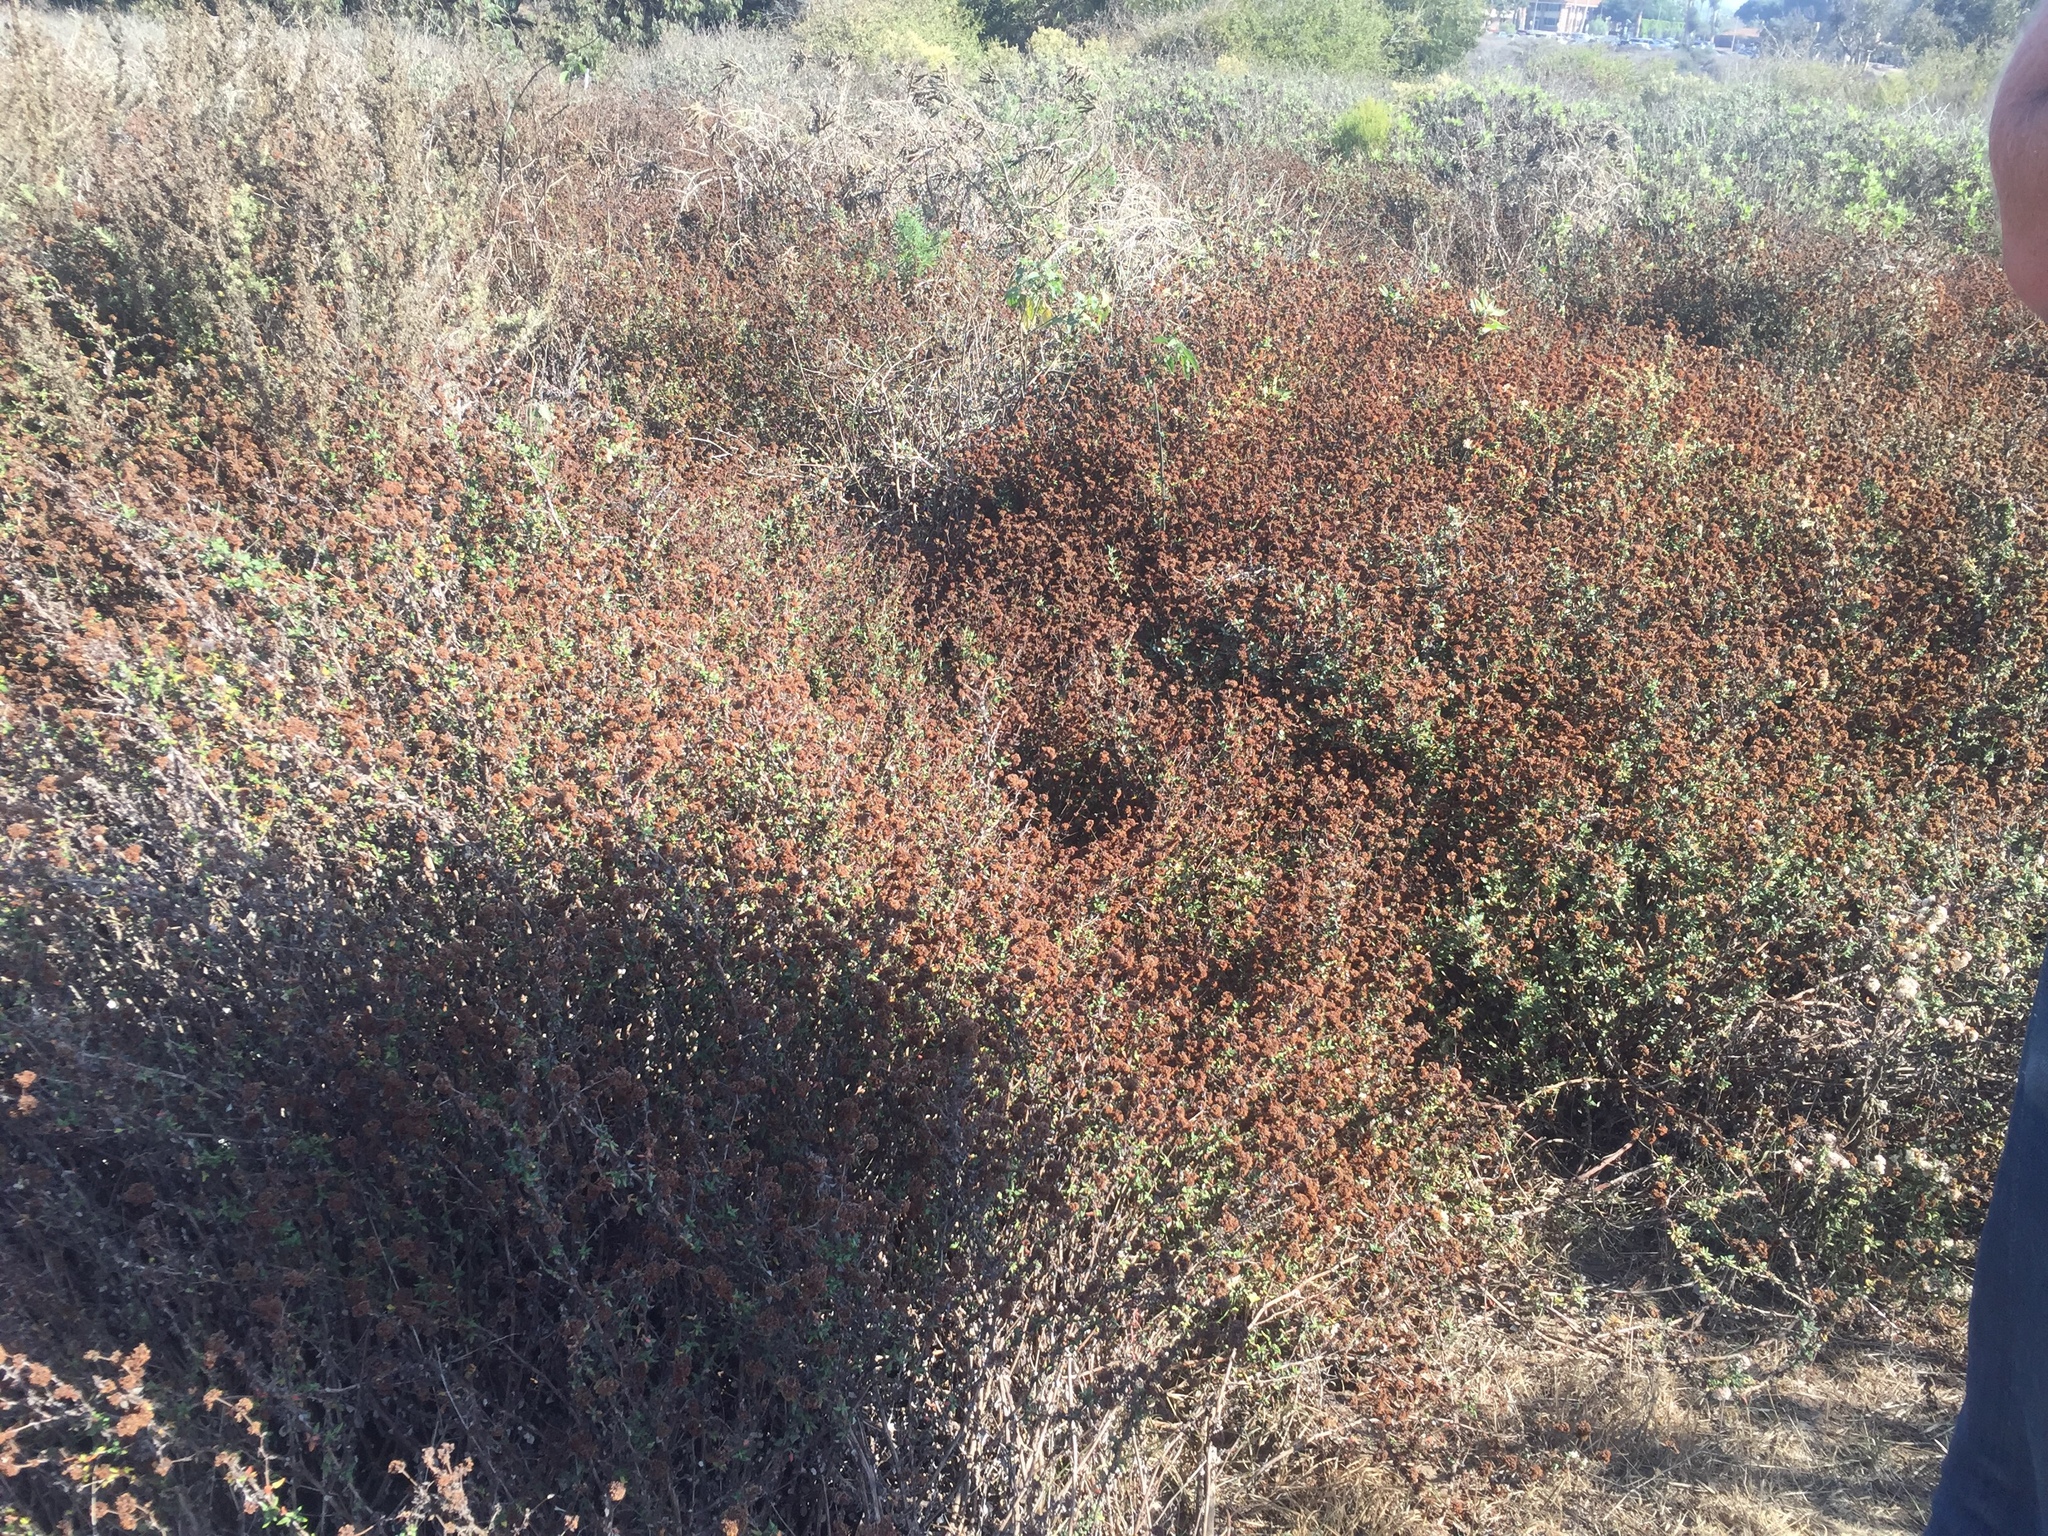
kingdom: Plantae
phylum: Tracheophyta
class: Magnoliopsida
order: Caryophyllales
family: Polygonaceae
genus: Eriogonum
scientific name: Eriogonum fasciculatum
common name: California wild buckwheat
